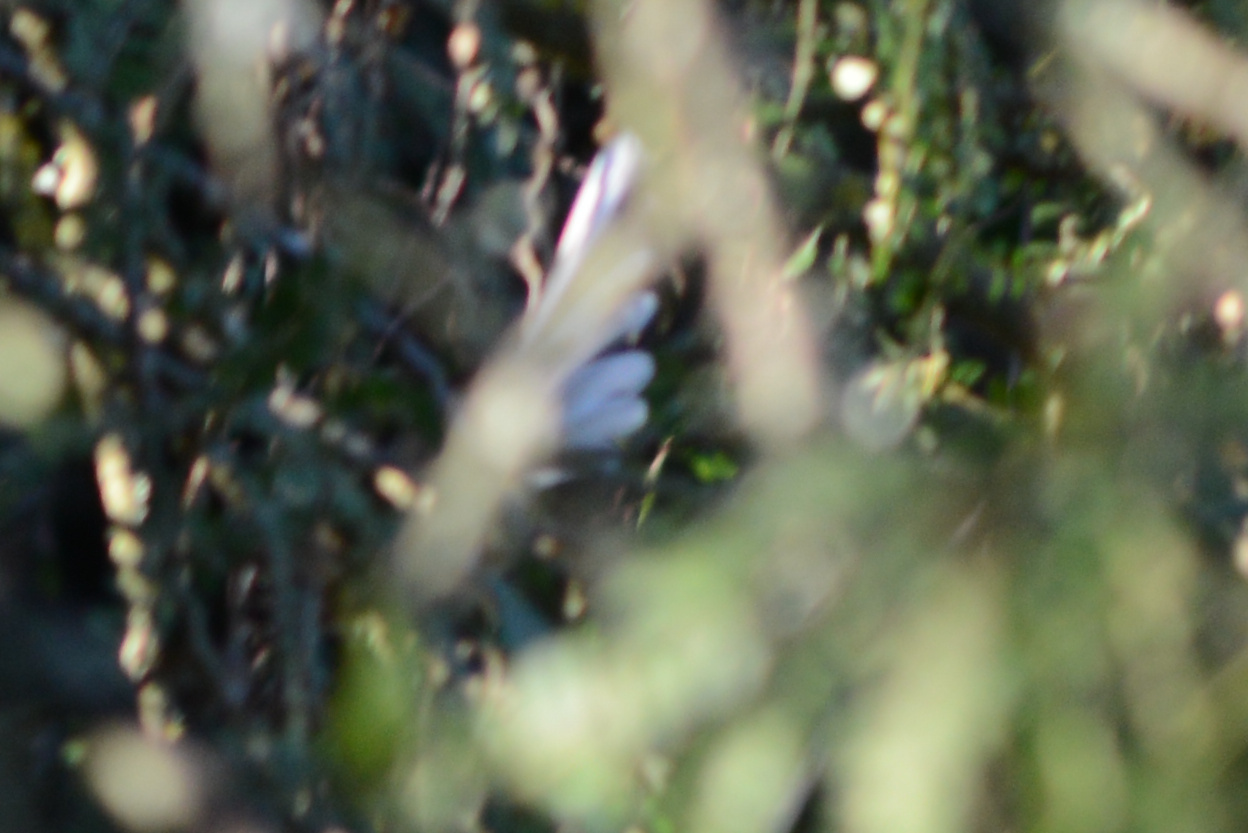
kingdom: Animalia
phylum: Chordata
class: Aves
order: Passeriformes
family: Rhipiduridae
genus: Rhipidura
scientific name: Rhipidura fuliginosa
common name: New zealand fantail
